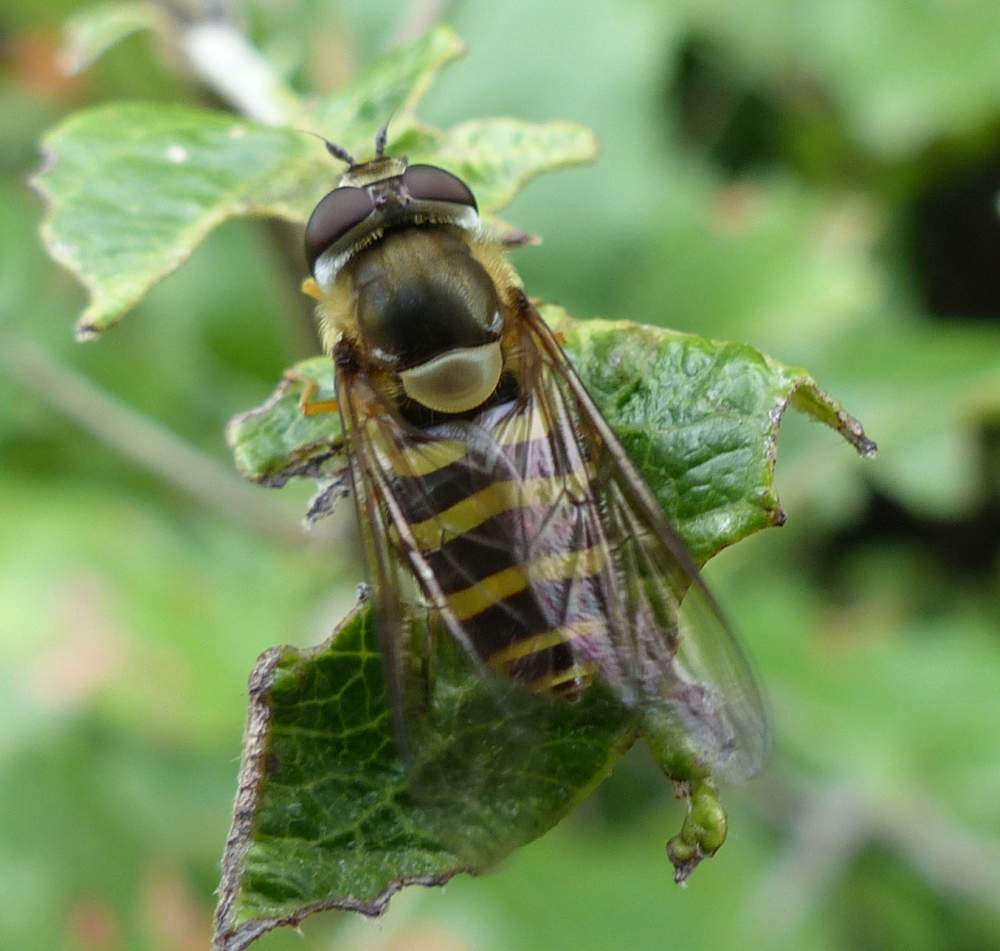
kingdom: Animalia
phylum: Arthropoda
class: Insecta
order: Diptera
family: Syrphidae
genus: Syrphus
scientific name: Syrphus
